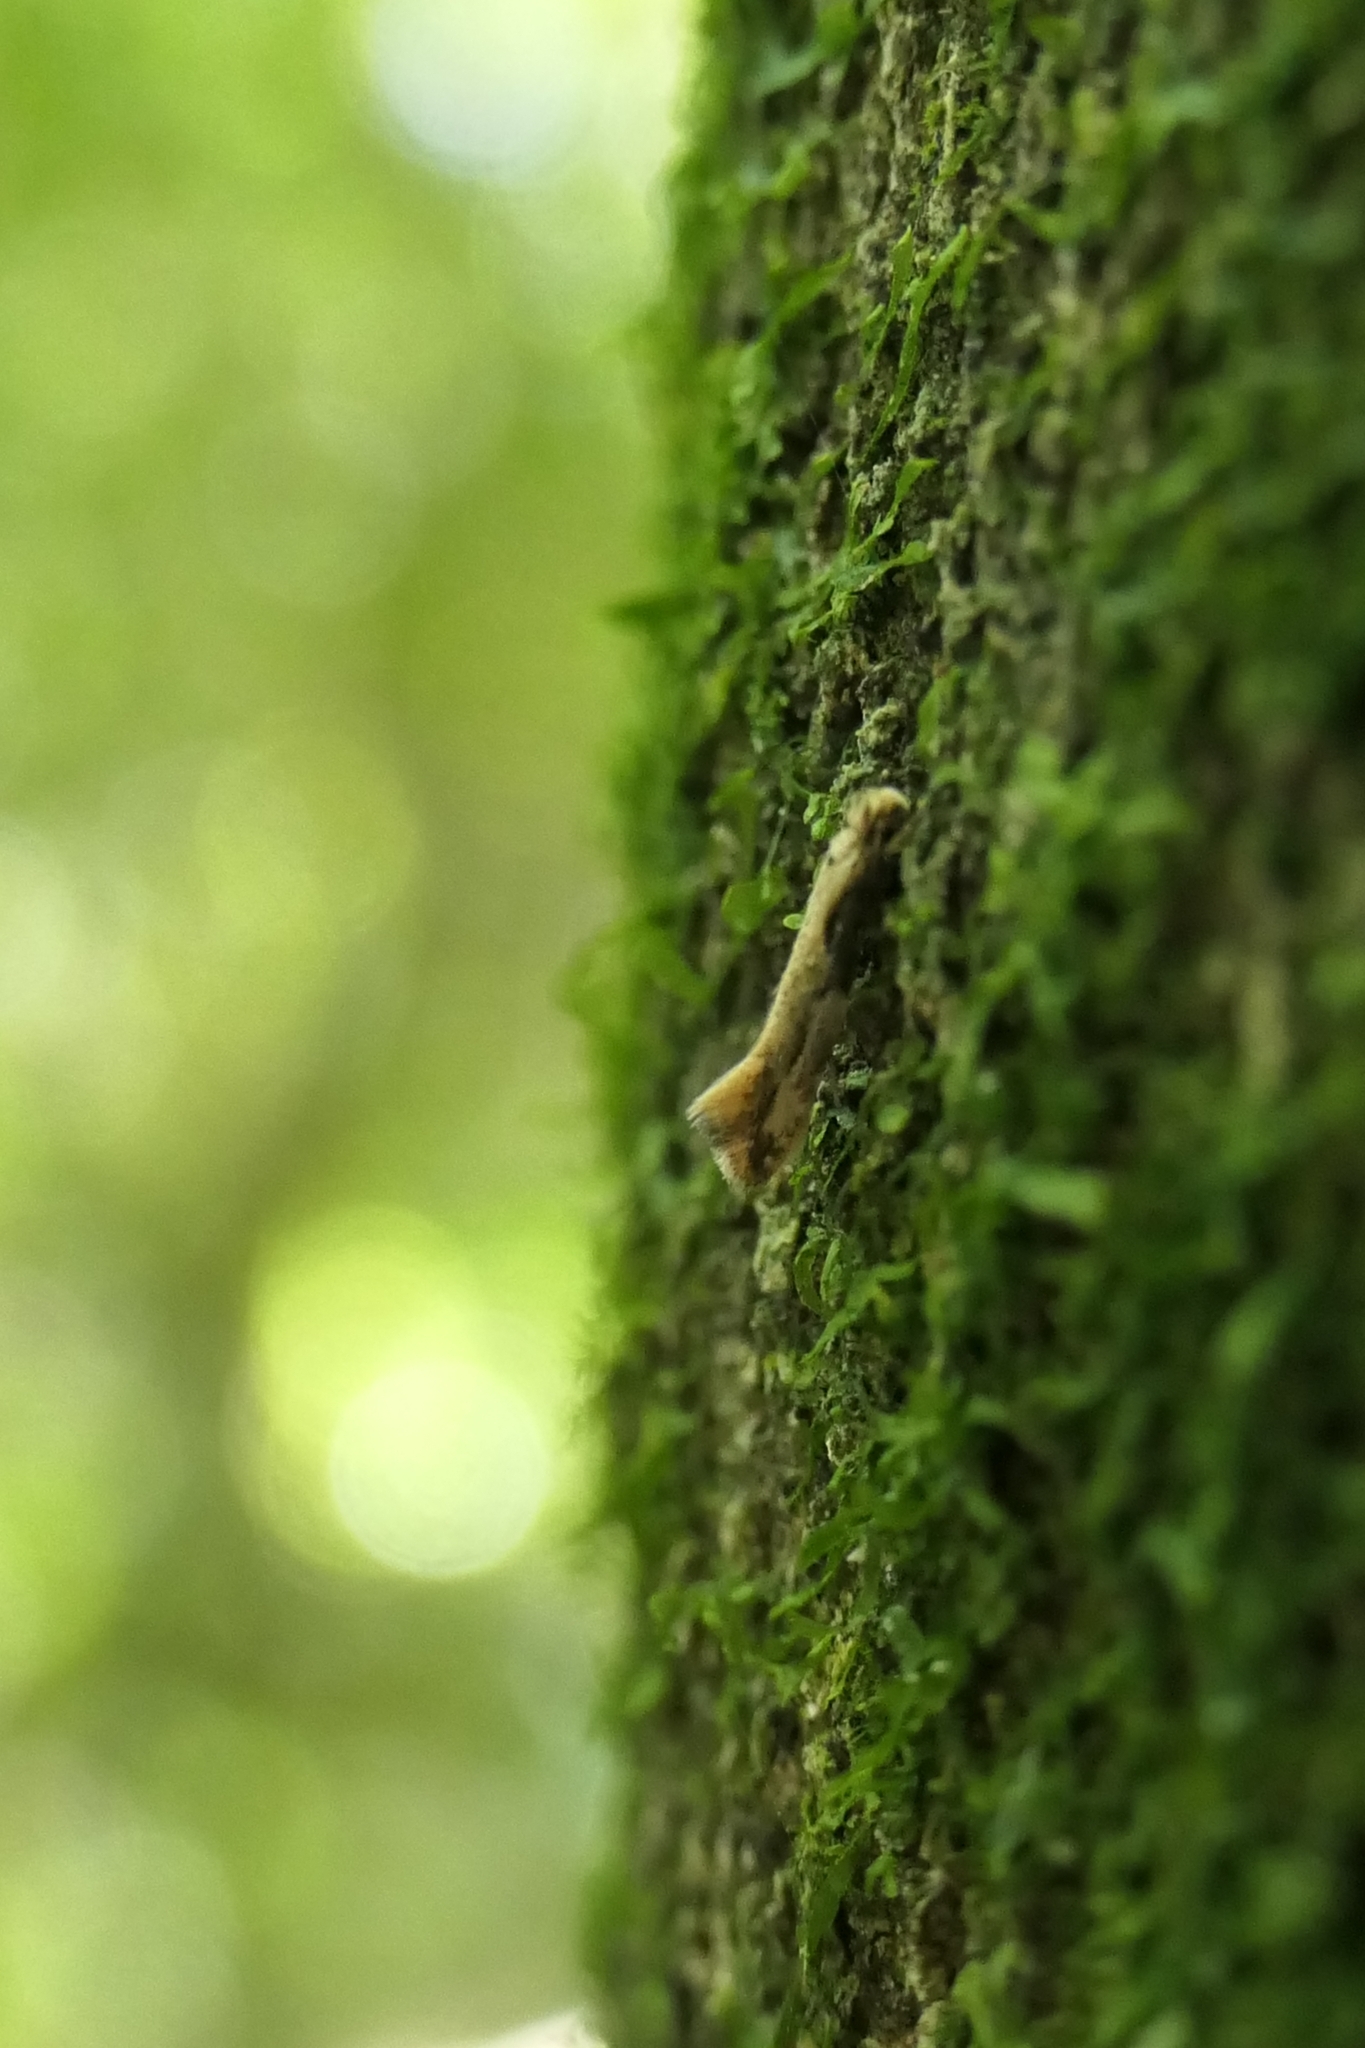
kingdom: Animalia
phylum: Arthropoda
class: Insecta
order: Lepidoptera
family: Tineidae
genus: Crypsitricha
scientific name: Crypsitricha pharotoma
